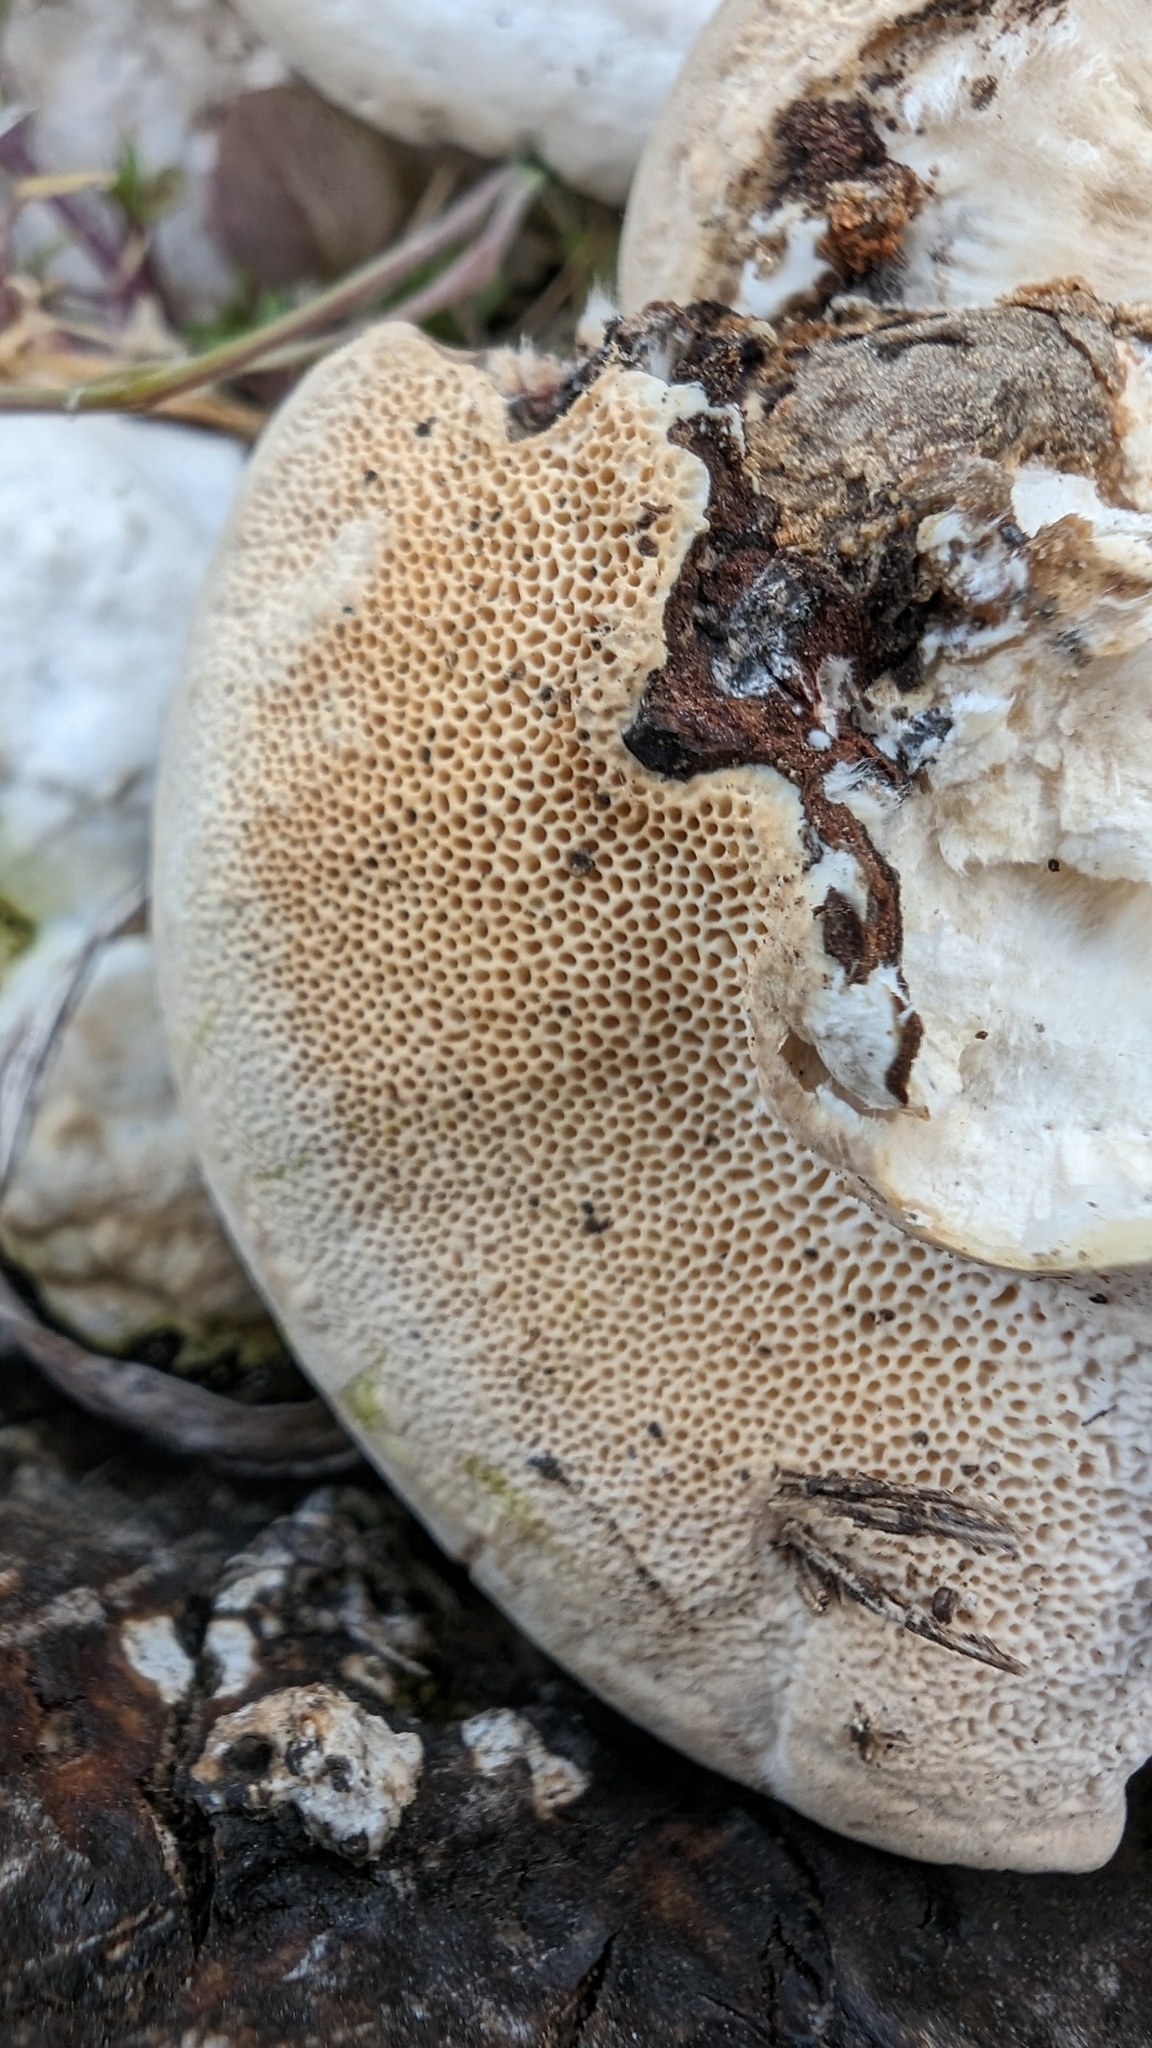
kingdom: Fungi
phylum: Basidiomycota
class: Agaricomycetes
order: Polyporales
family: Polyporaceae
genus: Trametes
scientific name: Trametes orientalis
